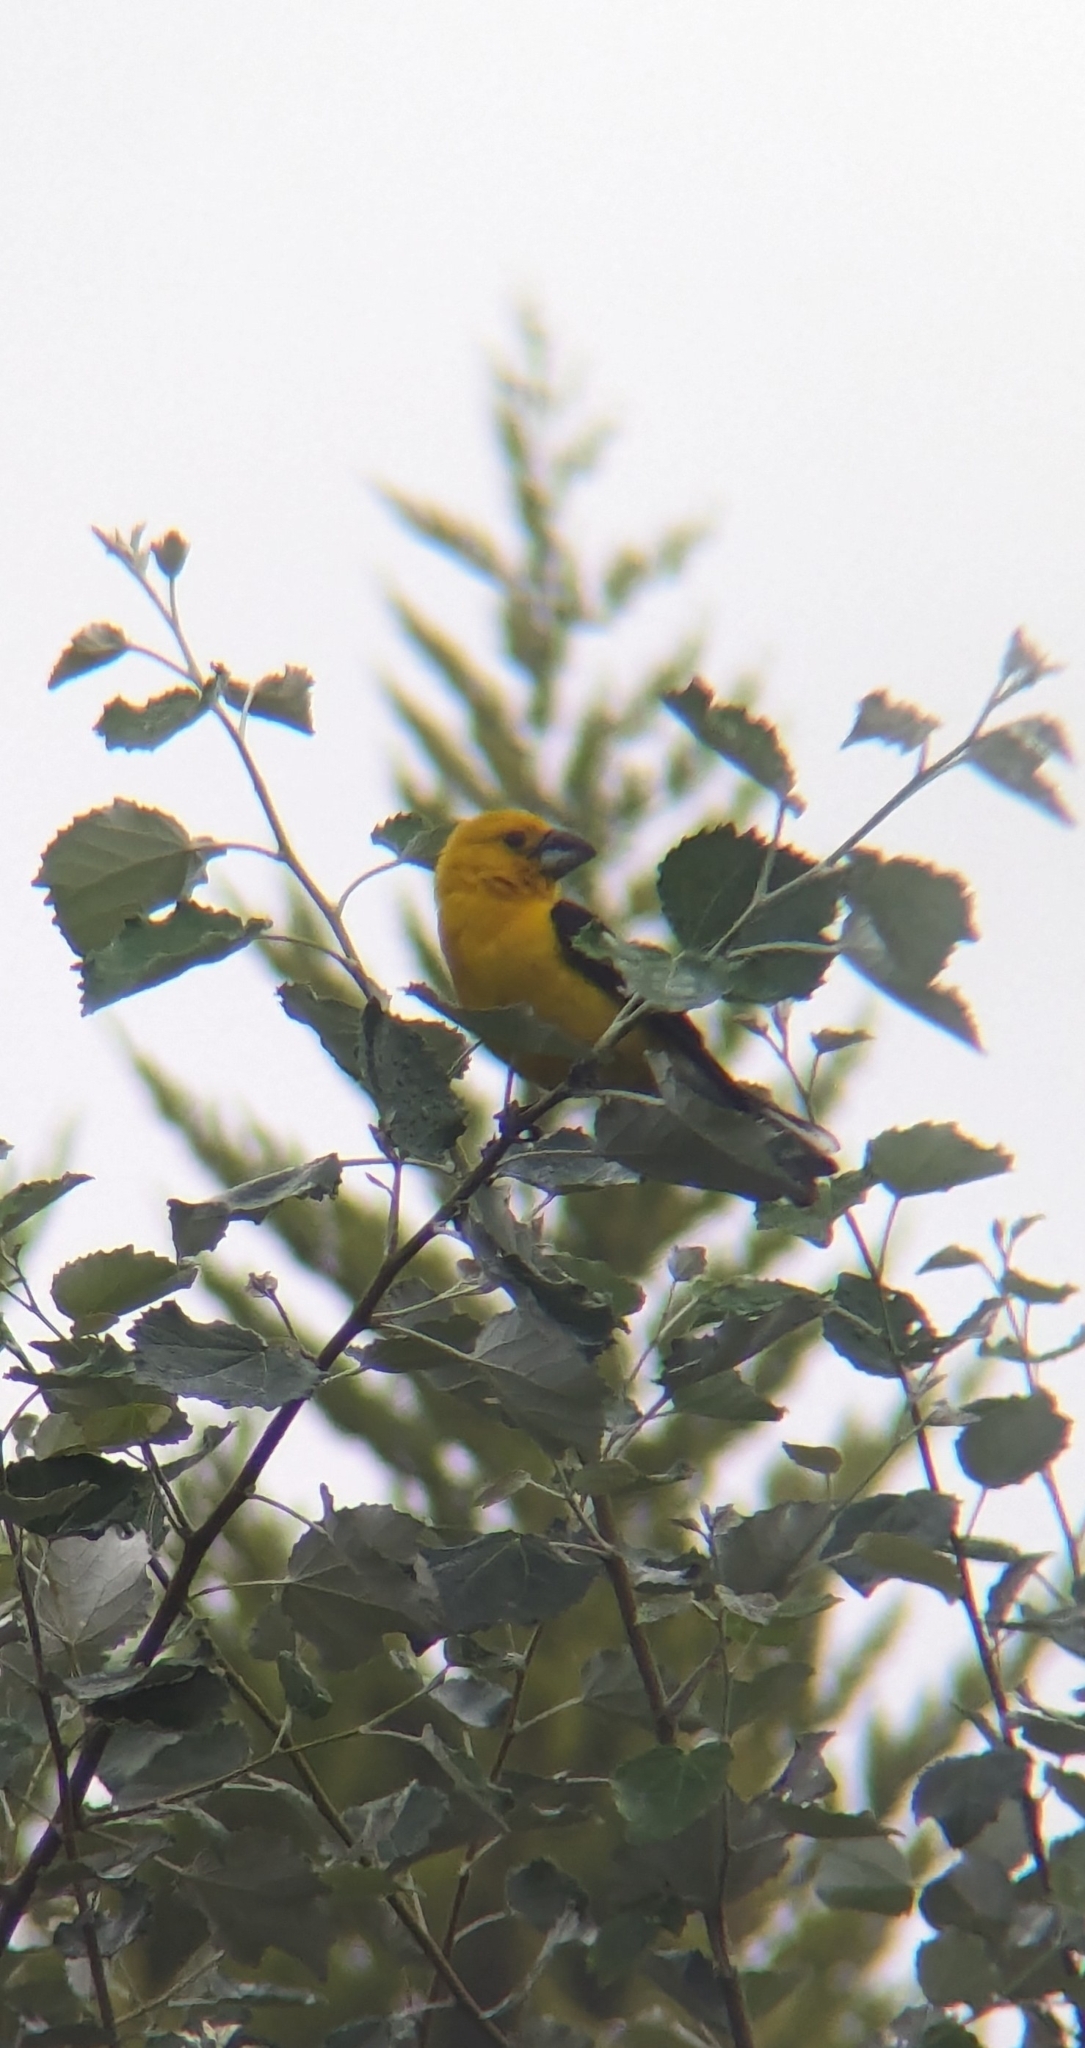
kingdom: Animalia
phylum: Chordata
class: Aves
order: Passeriformes
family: Cardinalidae
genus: Pheucticus
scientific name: Pheucticus chrysogaster
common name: Golden grosbeak
